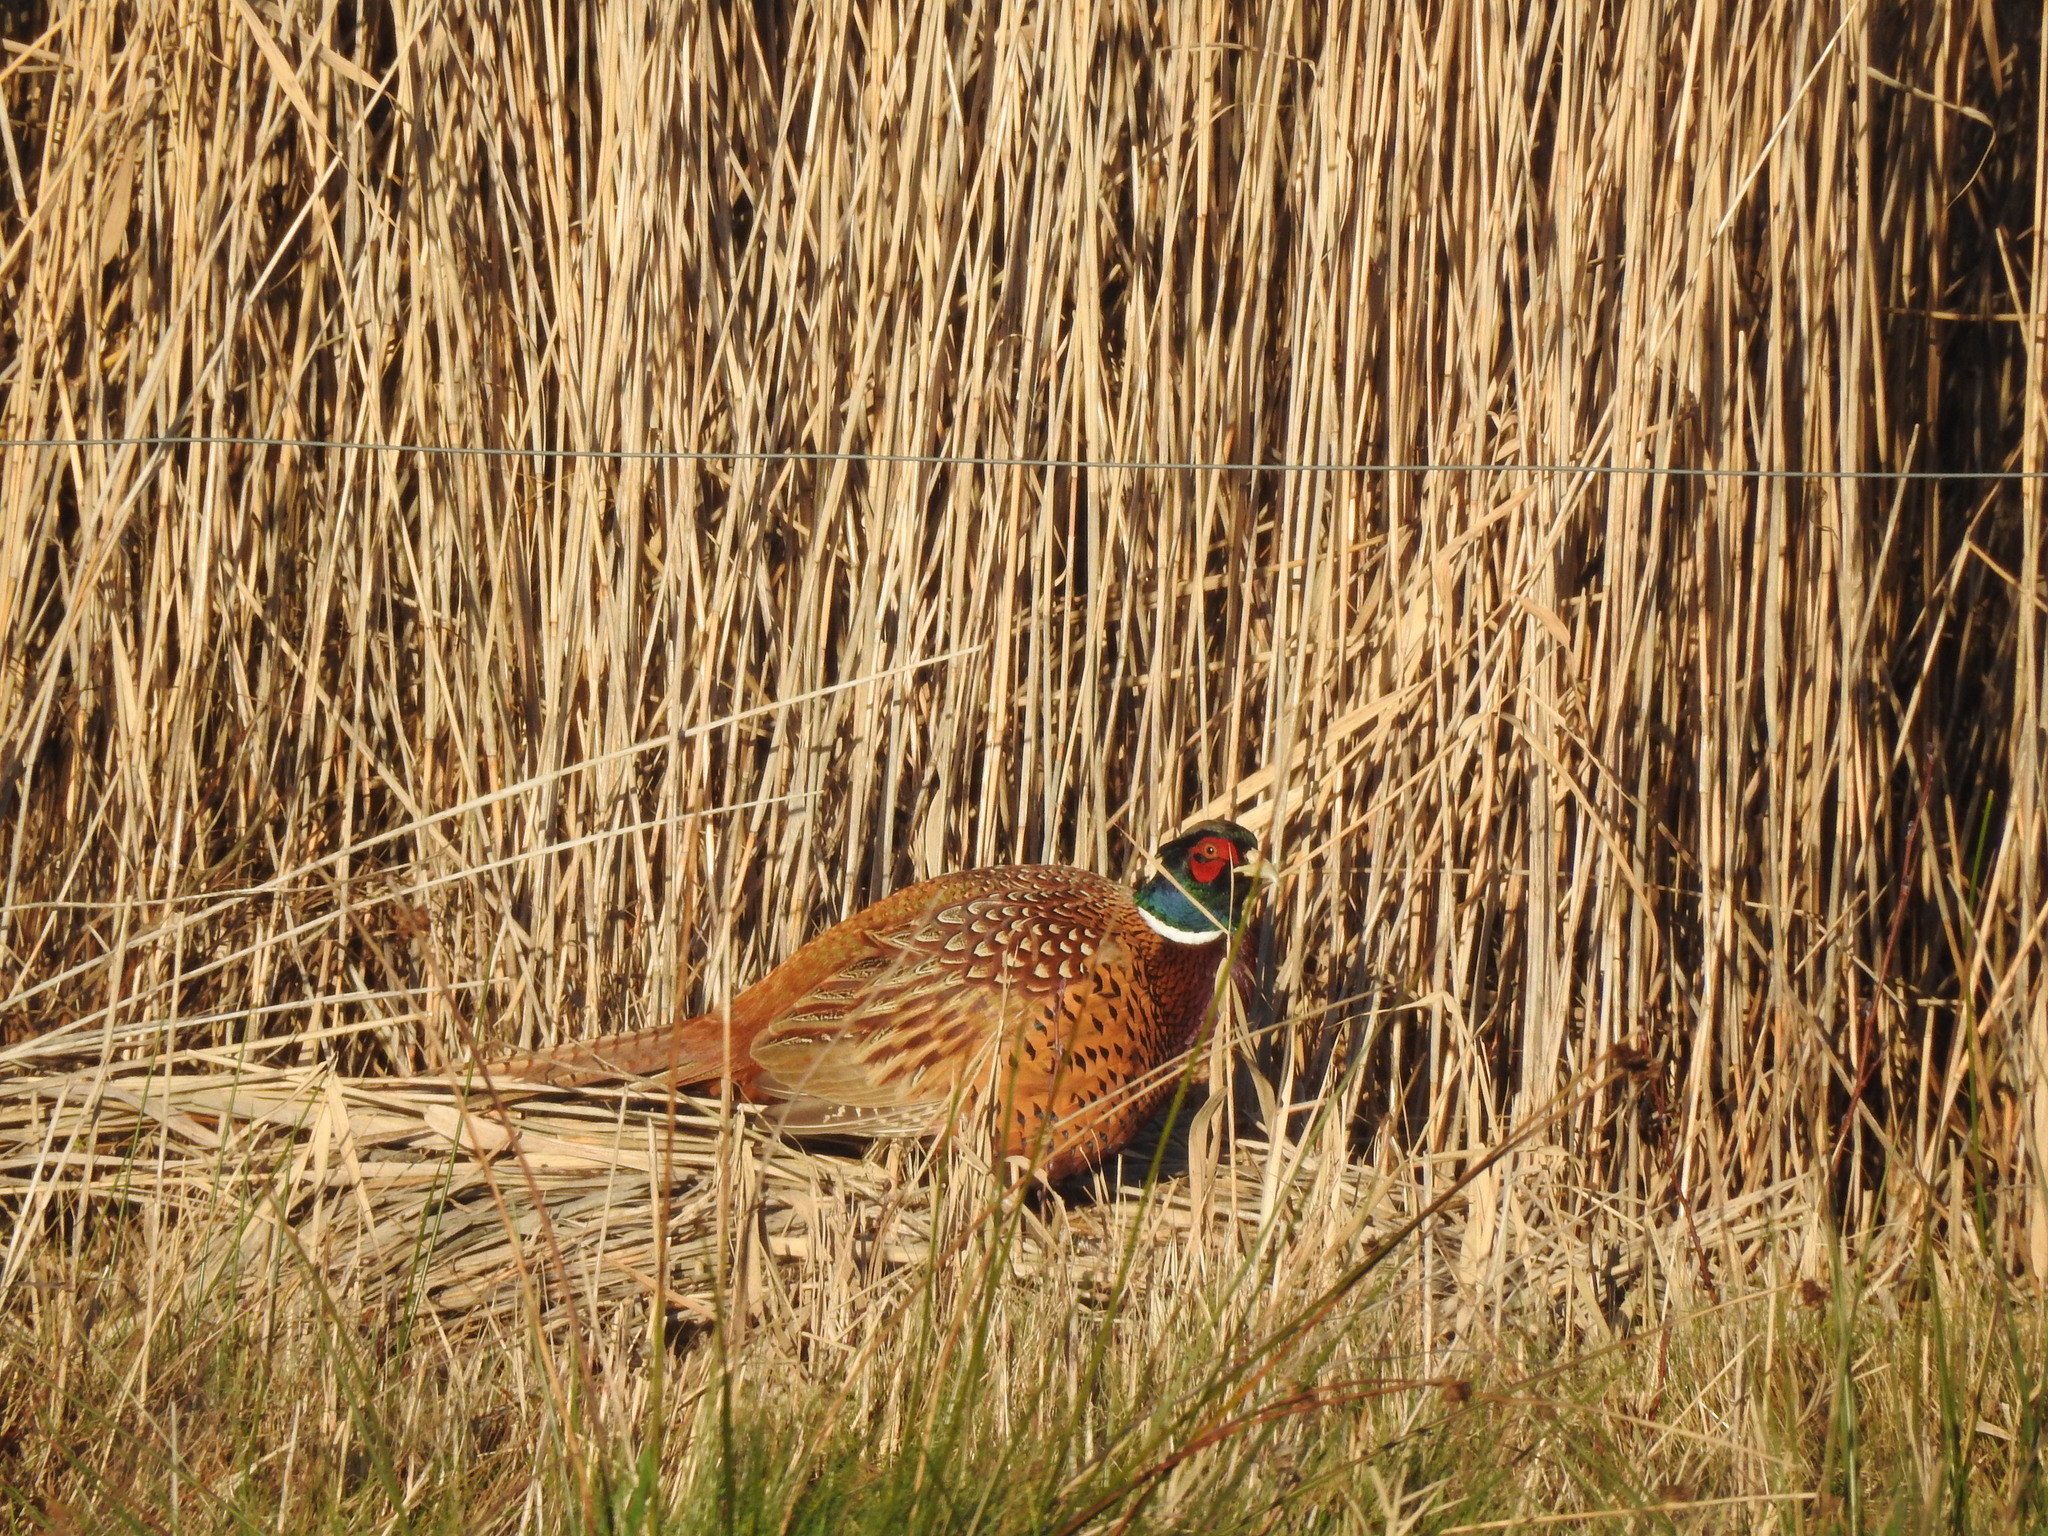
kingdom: Animalia
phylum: Chordata
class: Aves
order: Galliformes
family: Phasianidae
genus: Phasianus
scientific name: Phasianus colchicus
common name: Common pheasant
